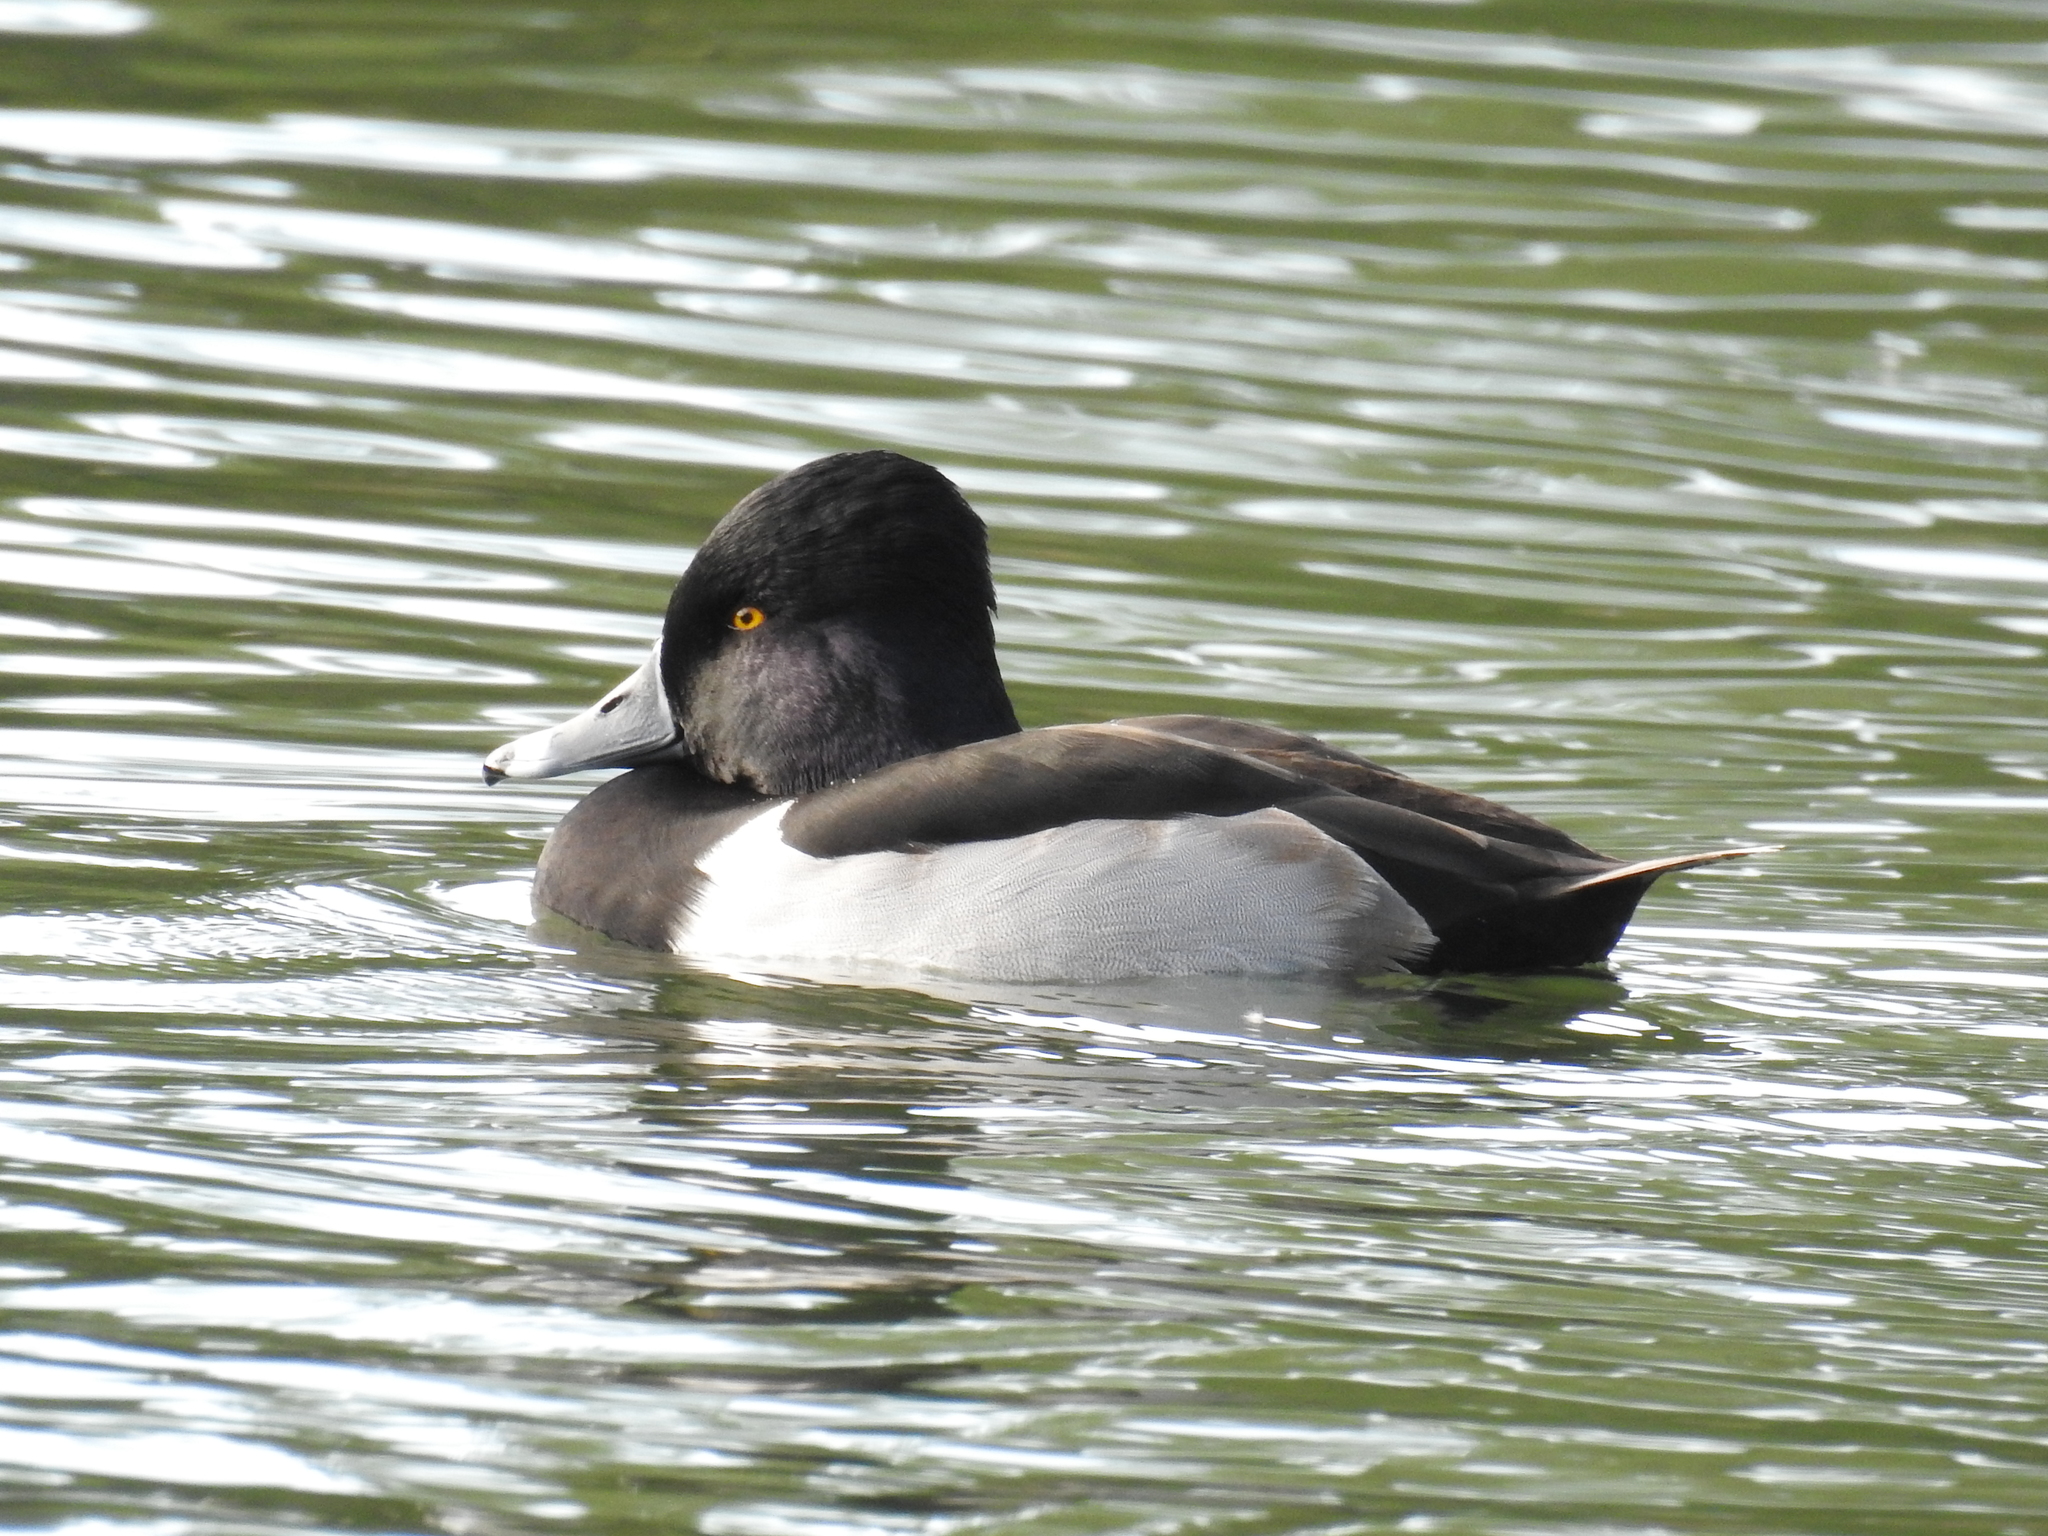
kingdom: Animalia
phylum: Chordata
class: Aves
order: Anseriformes
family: Anatidae
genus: Aythya
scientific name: Aythya collaris
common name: Ring-necked duck
